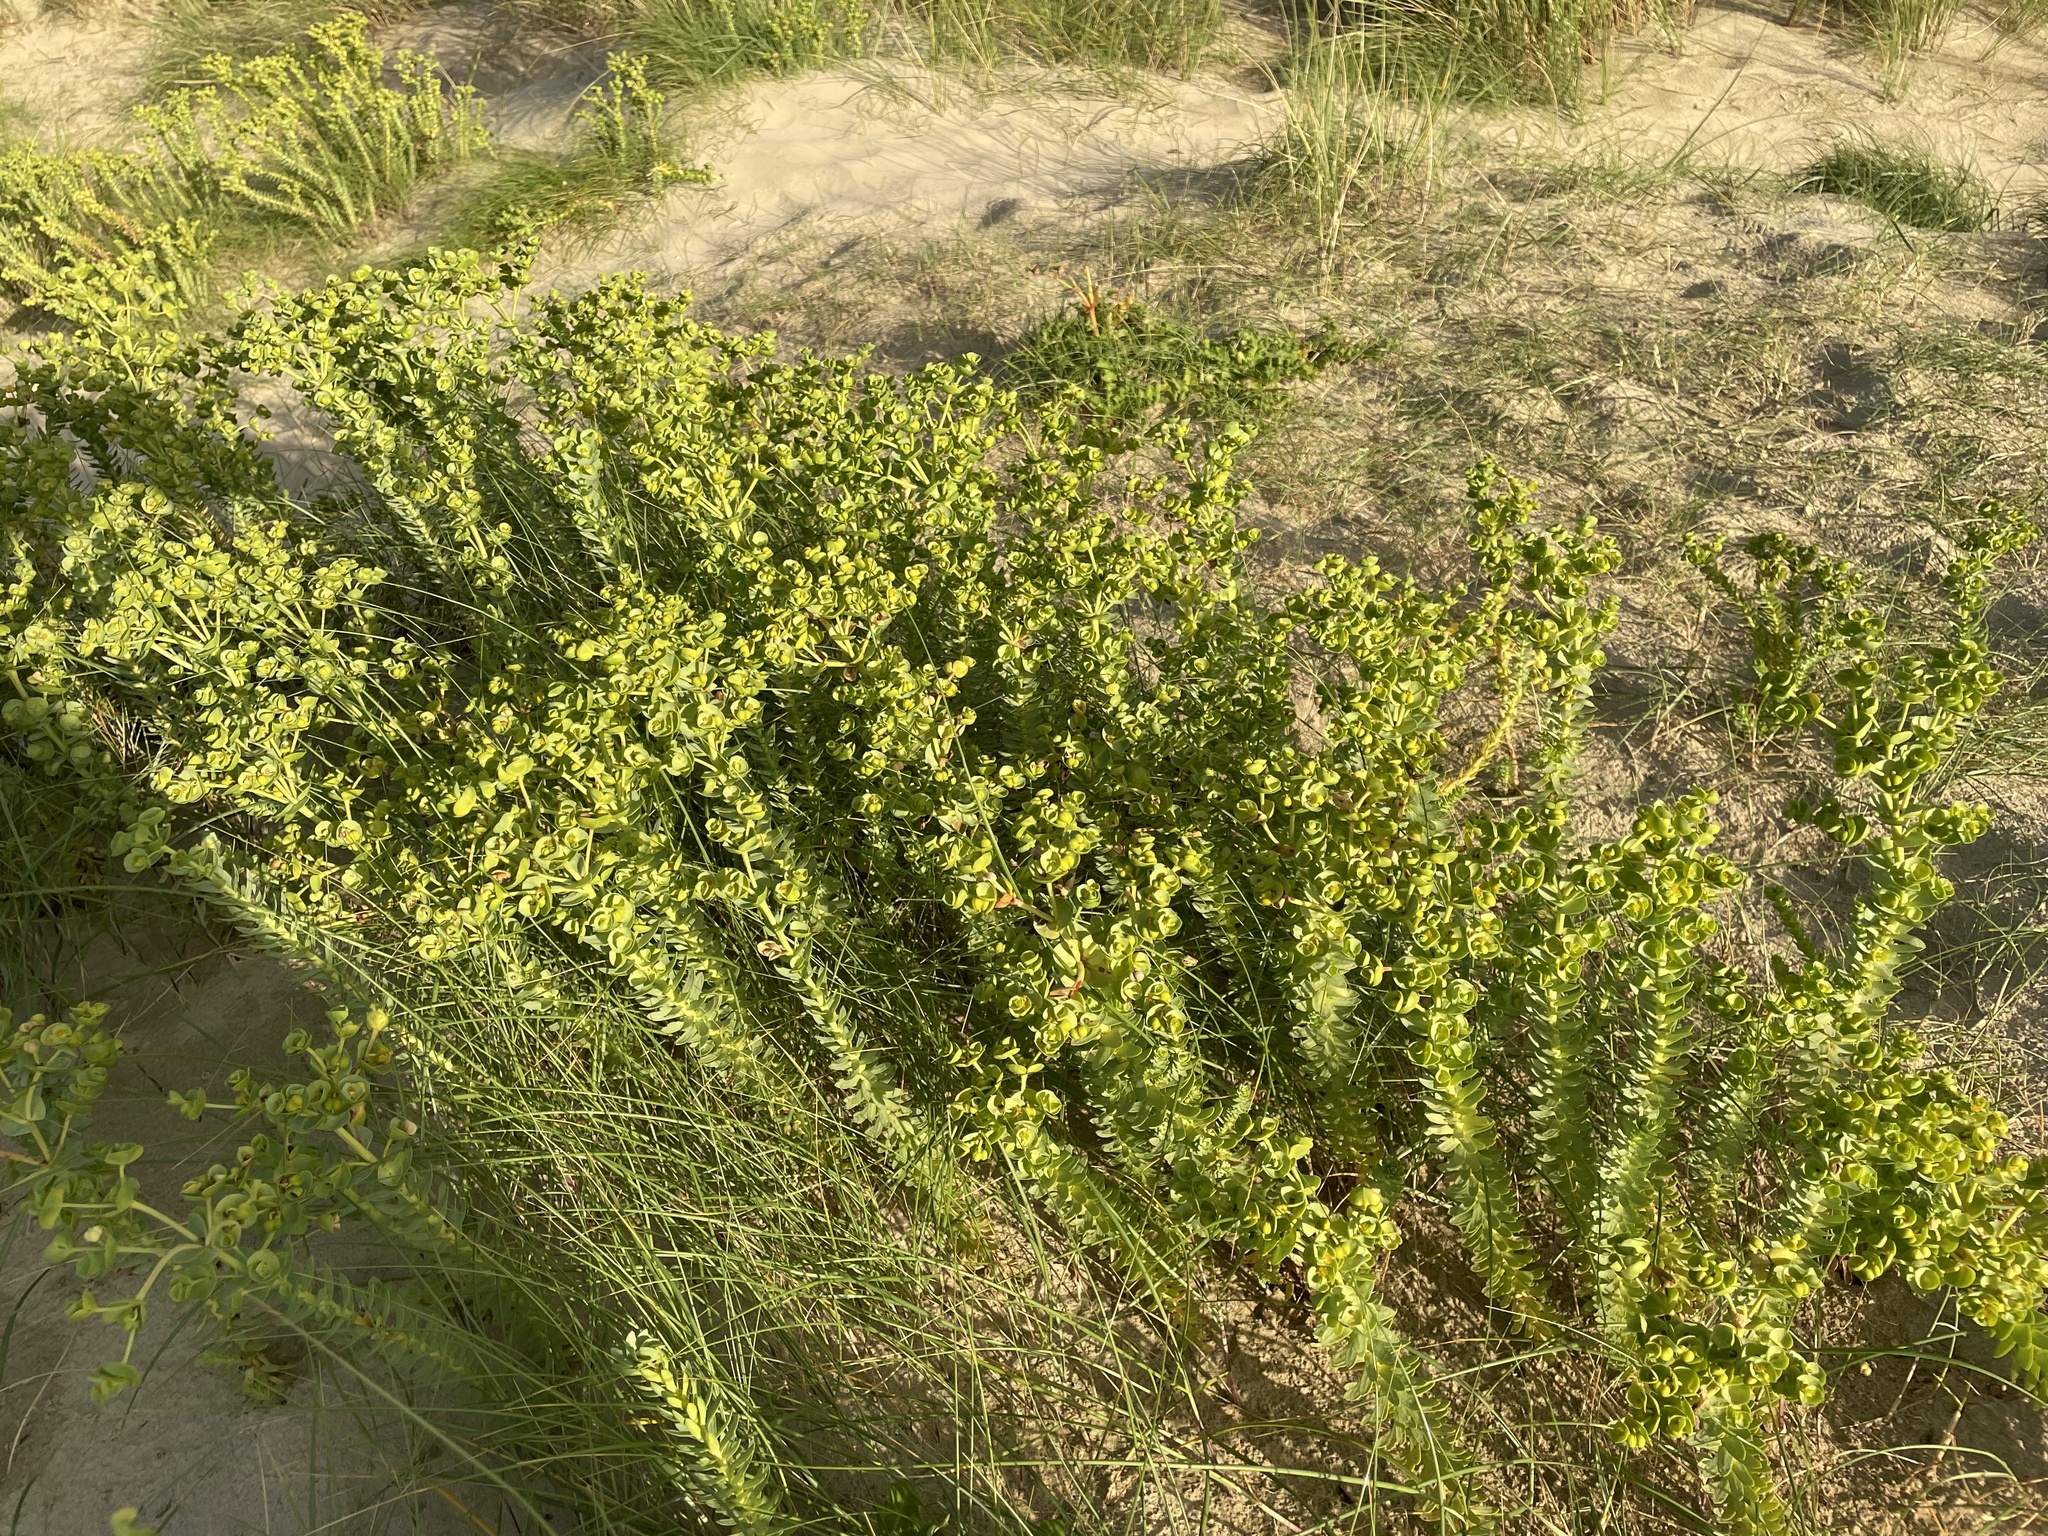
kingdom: Plantae
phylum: Tracheophyta
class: Magnoliopsida
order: Malpighiales
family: Euphorbiaceae
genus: Euphorbia
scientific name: Euphorbia paralias
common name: Sea spurge
